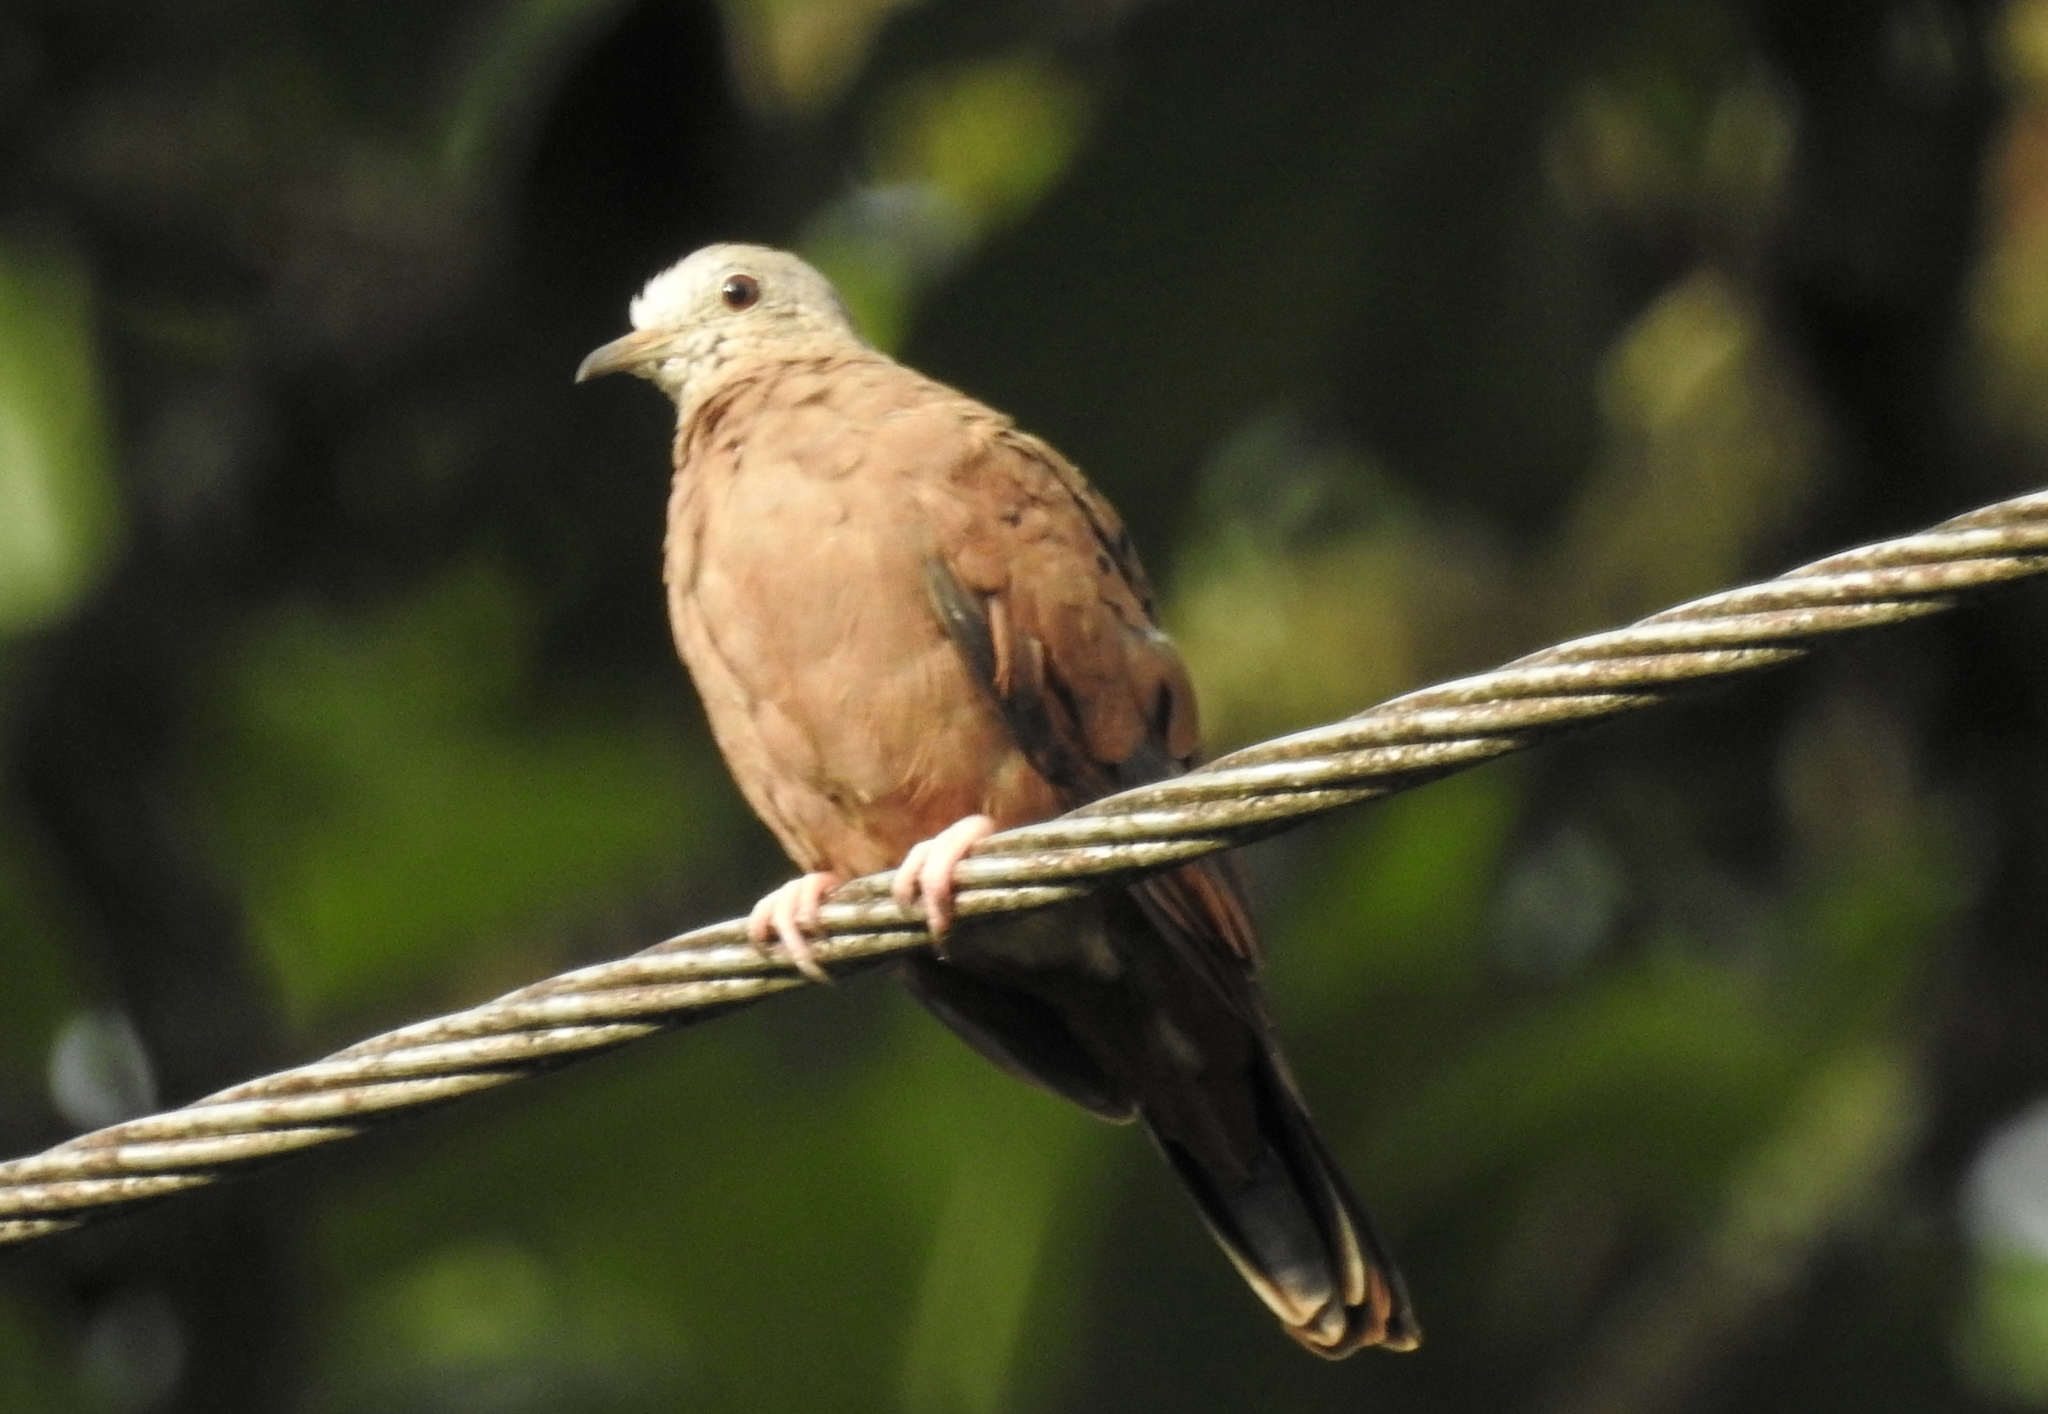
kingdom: Animalia
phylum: Chordata
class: Aves
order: Columbiformes
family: Columbidae
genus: Columbina
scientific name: Columbina talpacoti
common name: Ruddy ground dove
